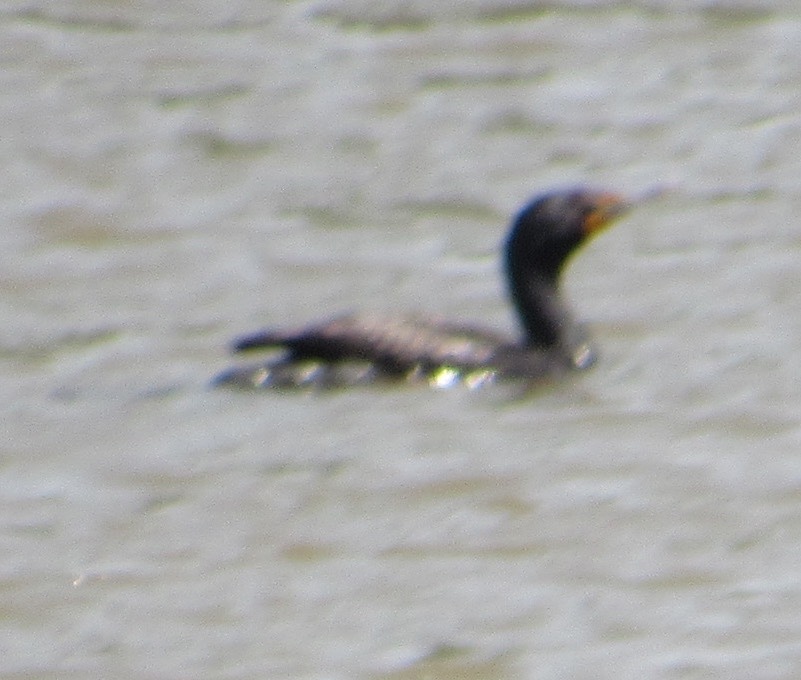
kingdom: Animalia
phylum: Chordata
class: Aves
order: Suliformes
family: Phalacrocoracidae
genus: Phalacrocorax
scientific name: Phalacrocorax auritus
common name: Double-crested cormorant
